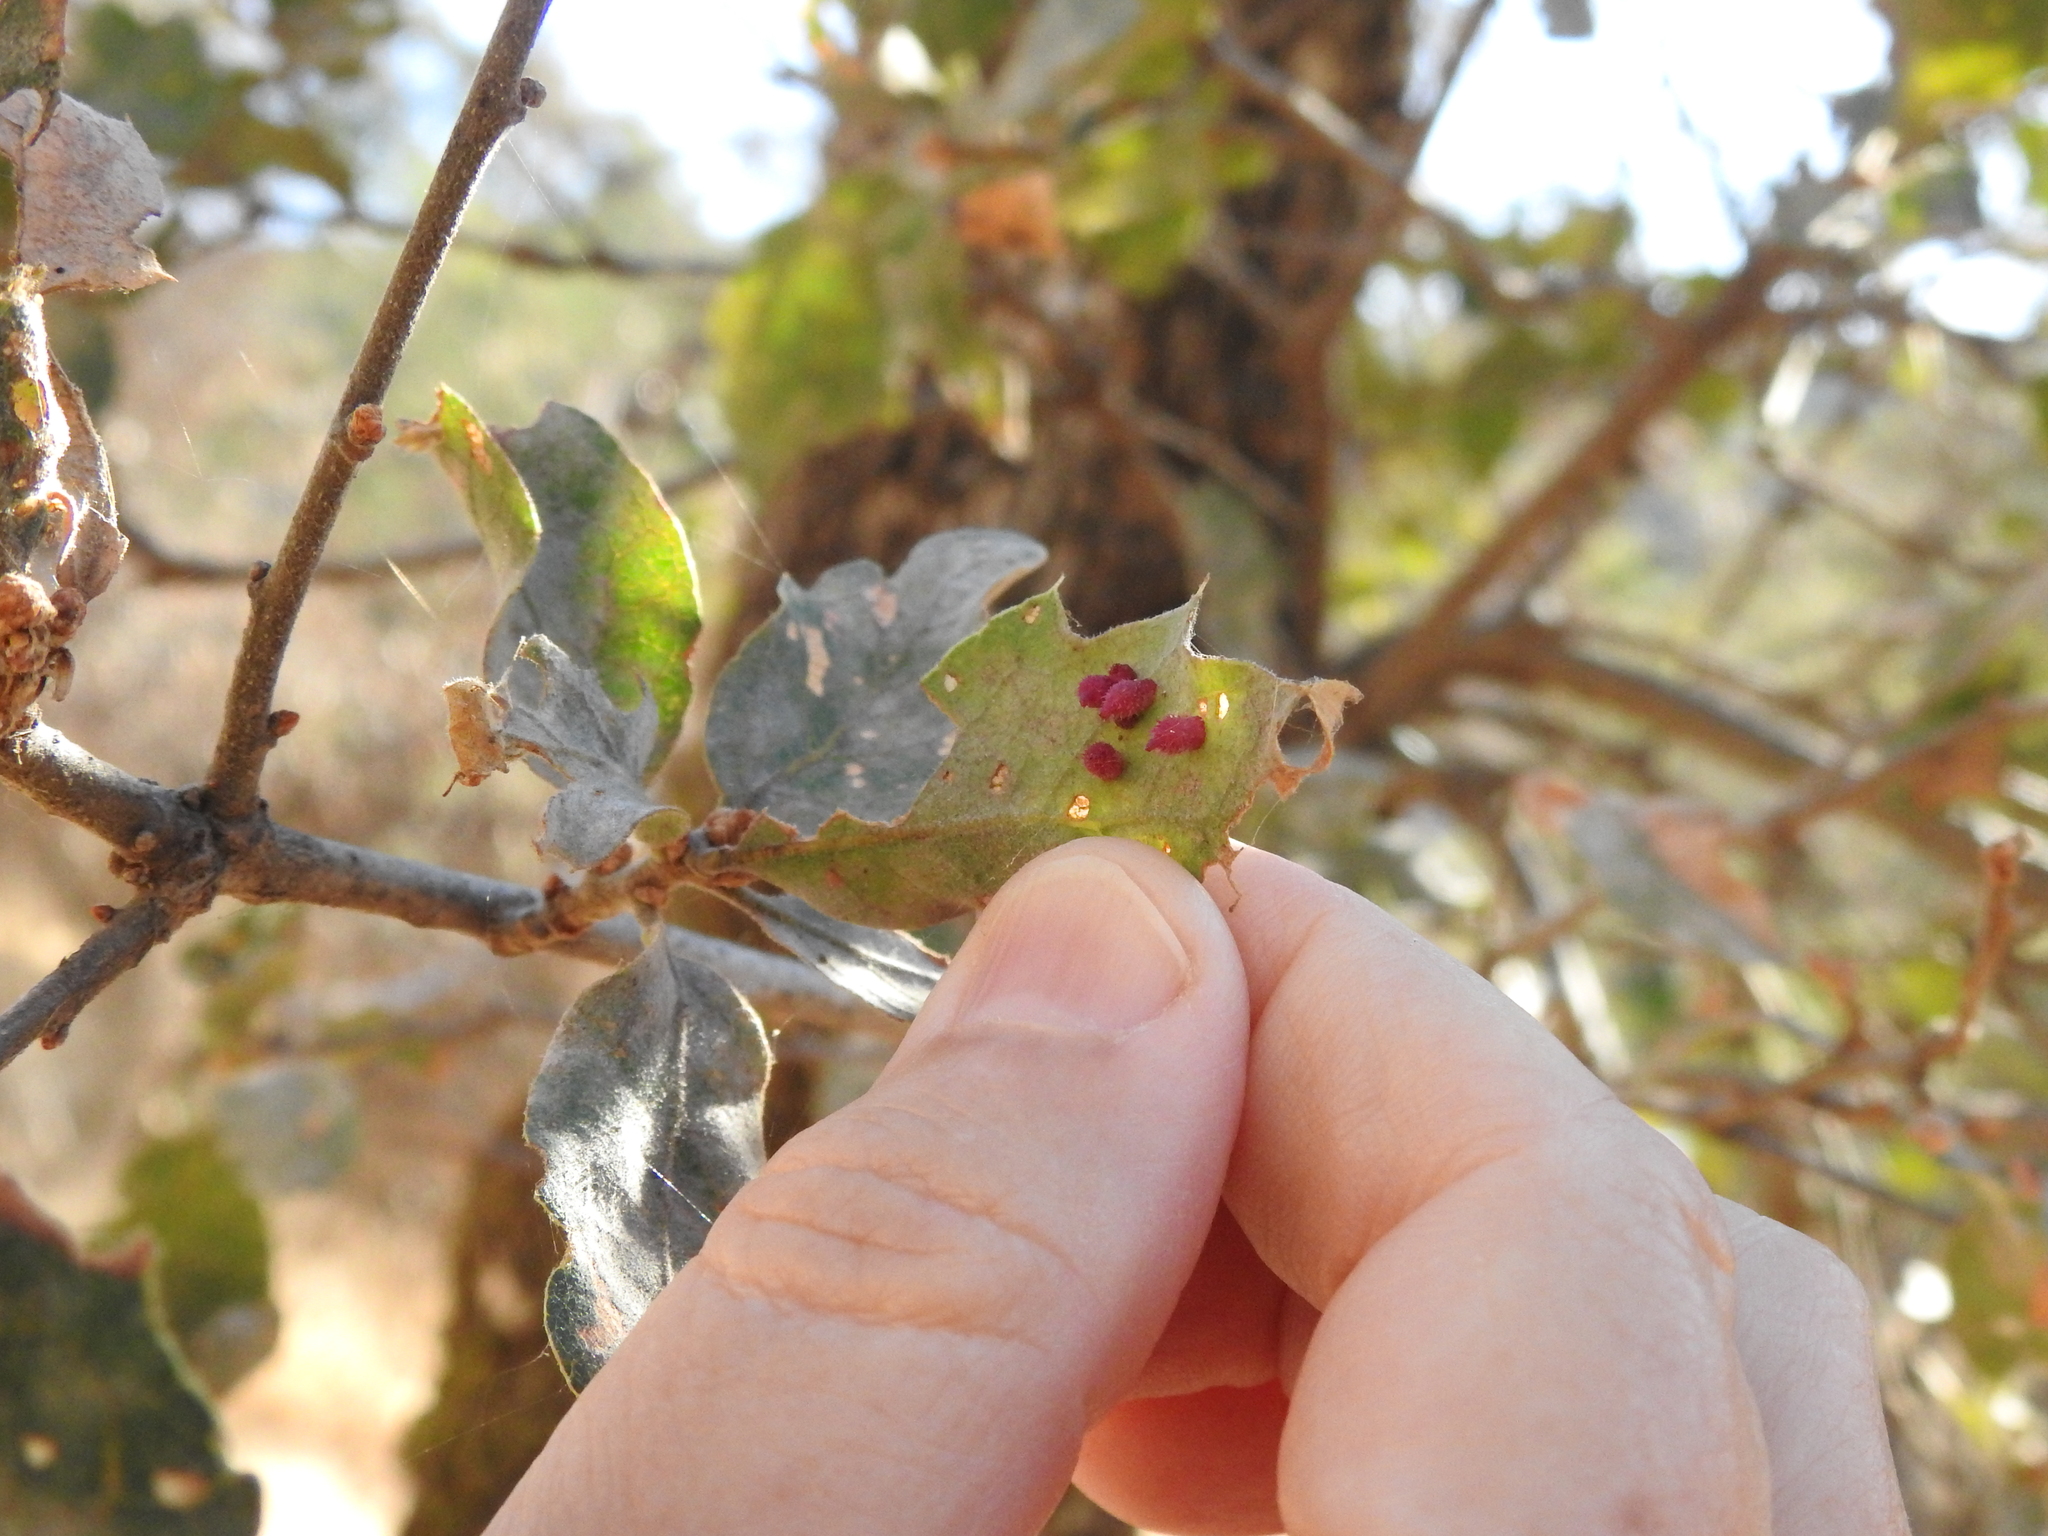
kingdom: Animalia
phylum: Arthropoda
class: Insecta
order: Hymenoptera
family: Cynipidae
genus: Andricus
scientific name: Andricus
